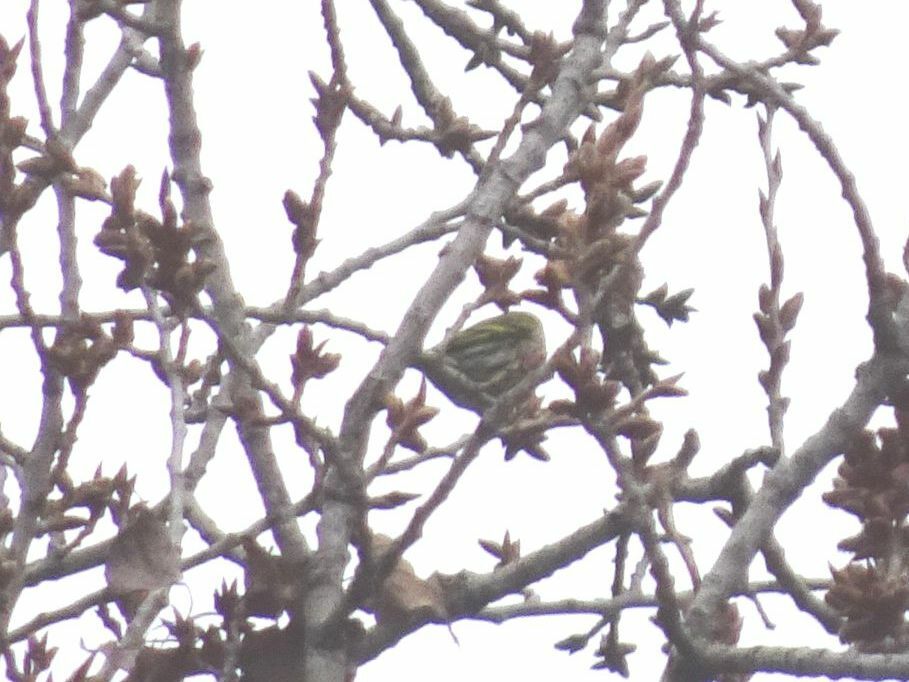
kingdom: Animalia
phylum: Chordata
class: Aves
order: Passeriformes
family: Fringillidae
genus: Spinus
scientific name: Spinus spinus
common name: Eurasian siskin
